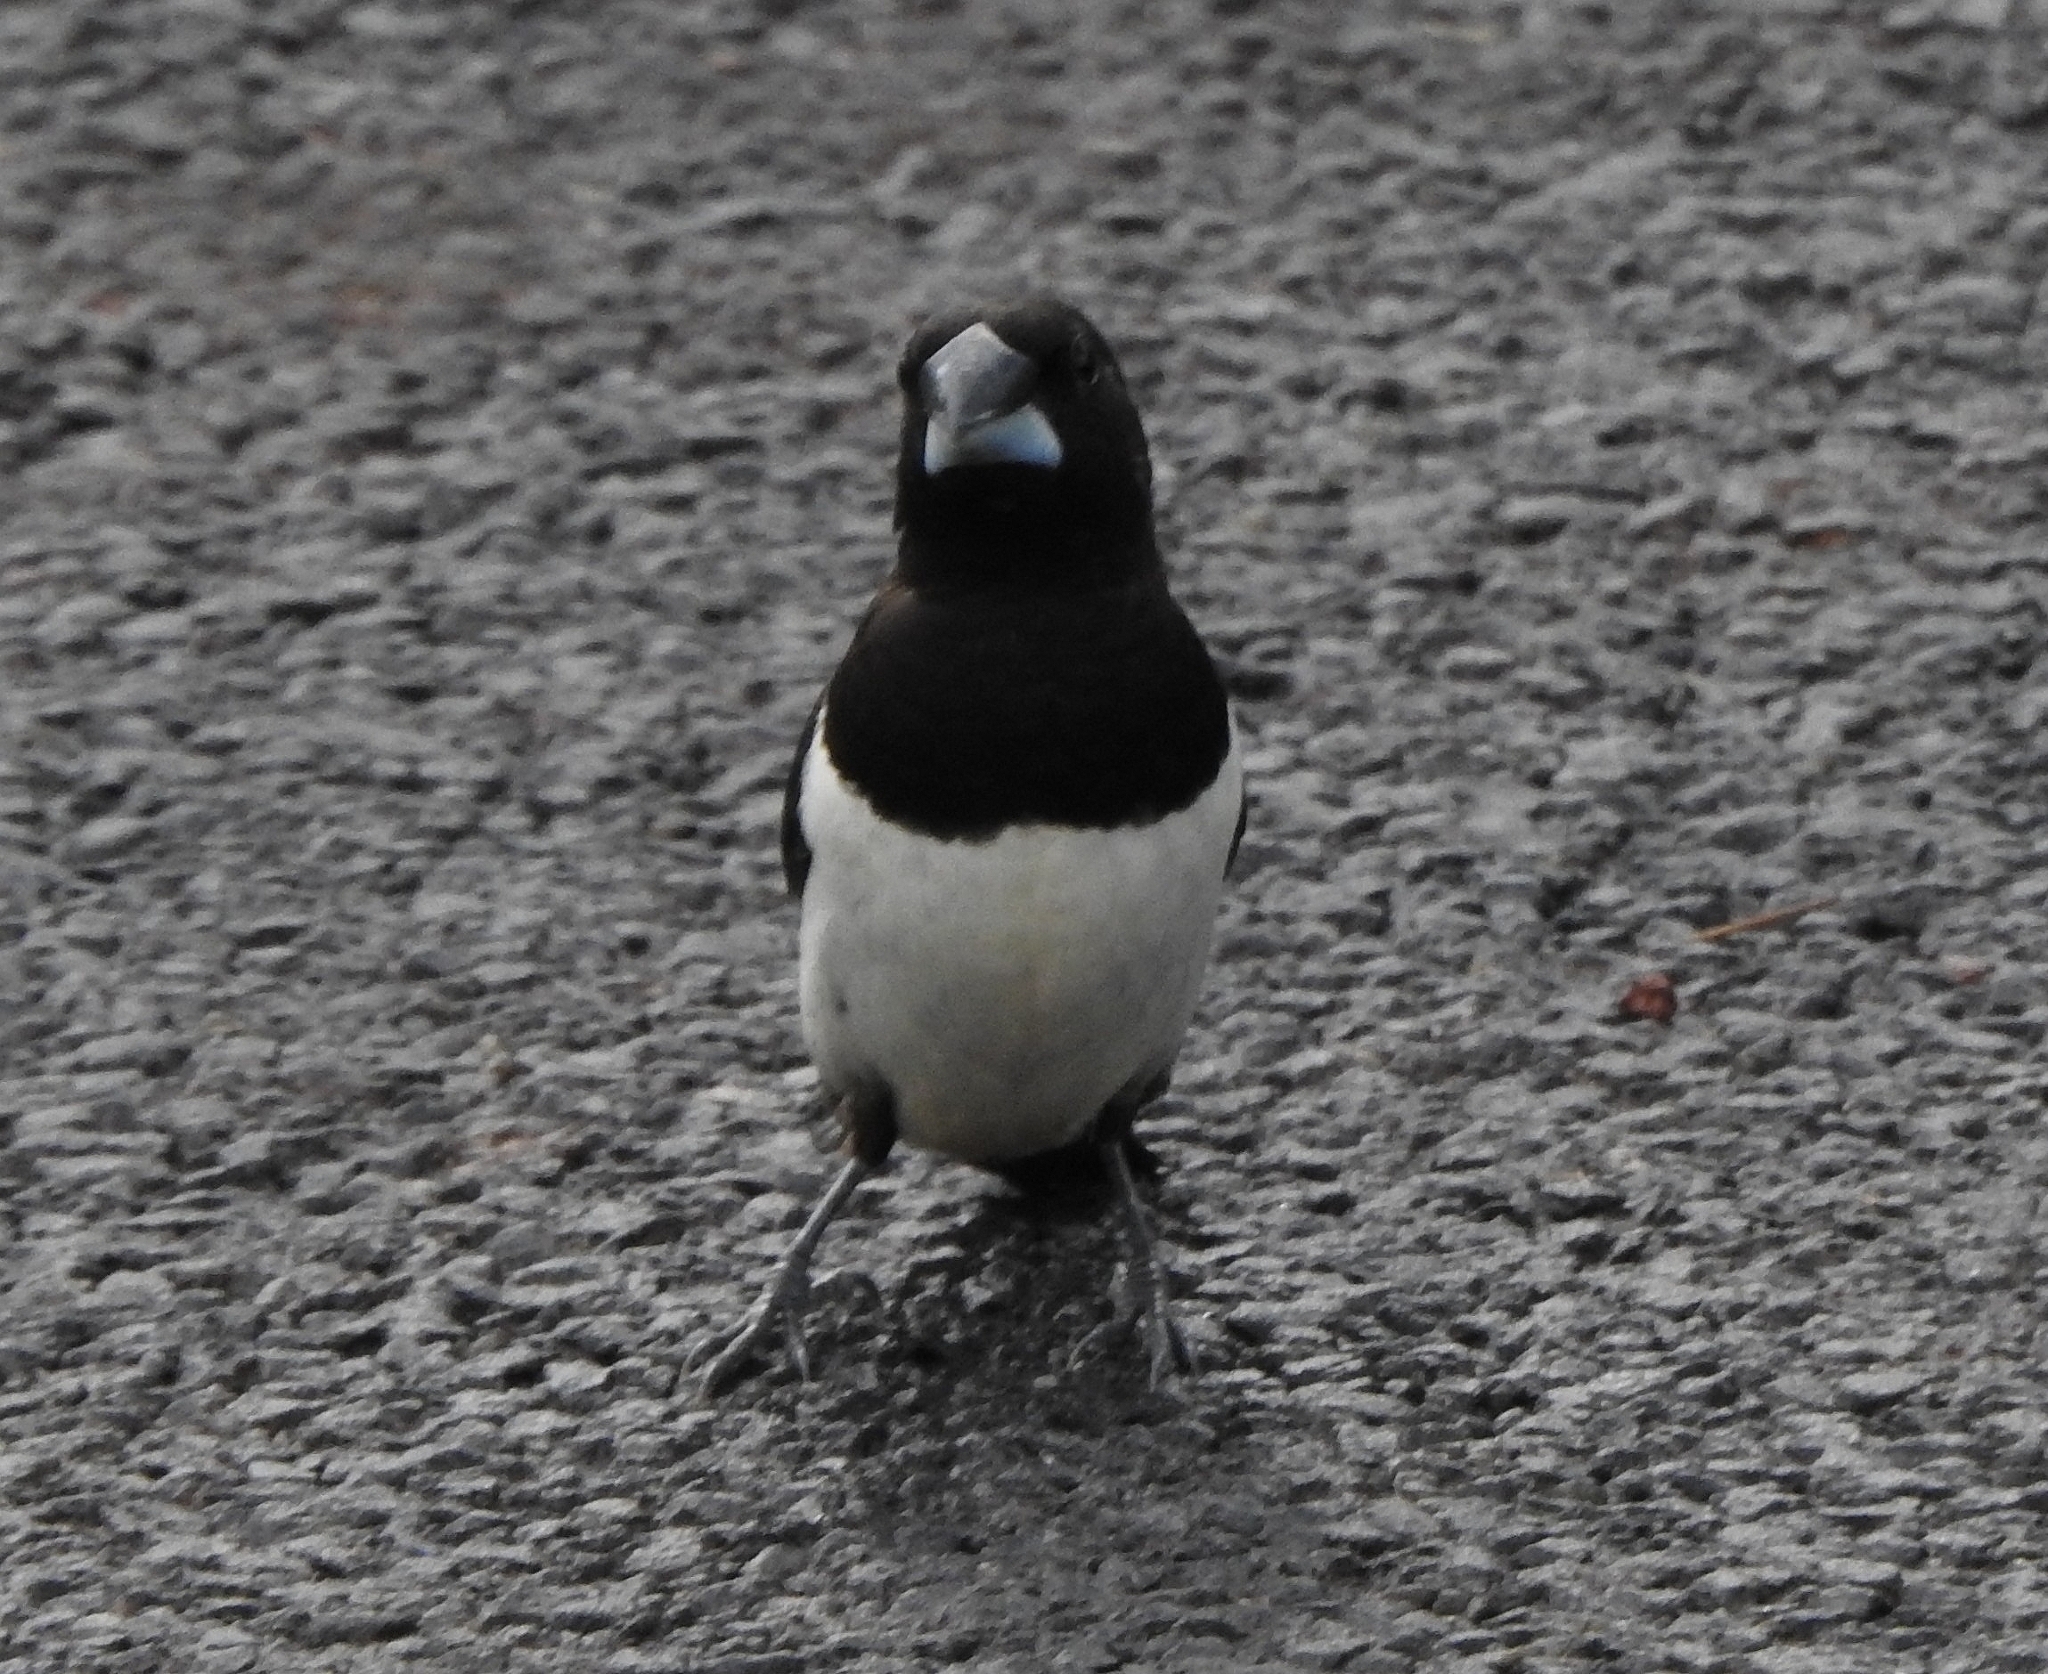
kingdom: Animalia
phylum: Chordata
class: Aves
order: Passeriformes
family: Estrildidae
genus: Lonchura
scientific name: Lonchura striata
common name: White-rumped munia
